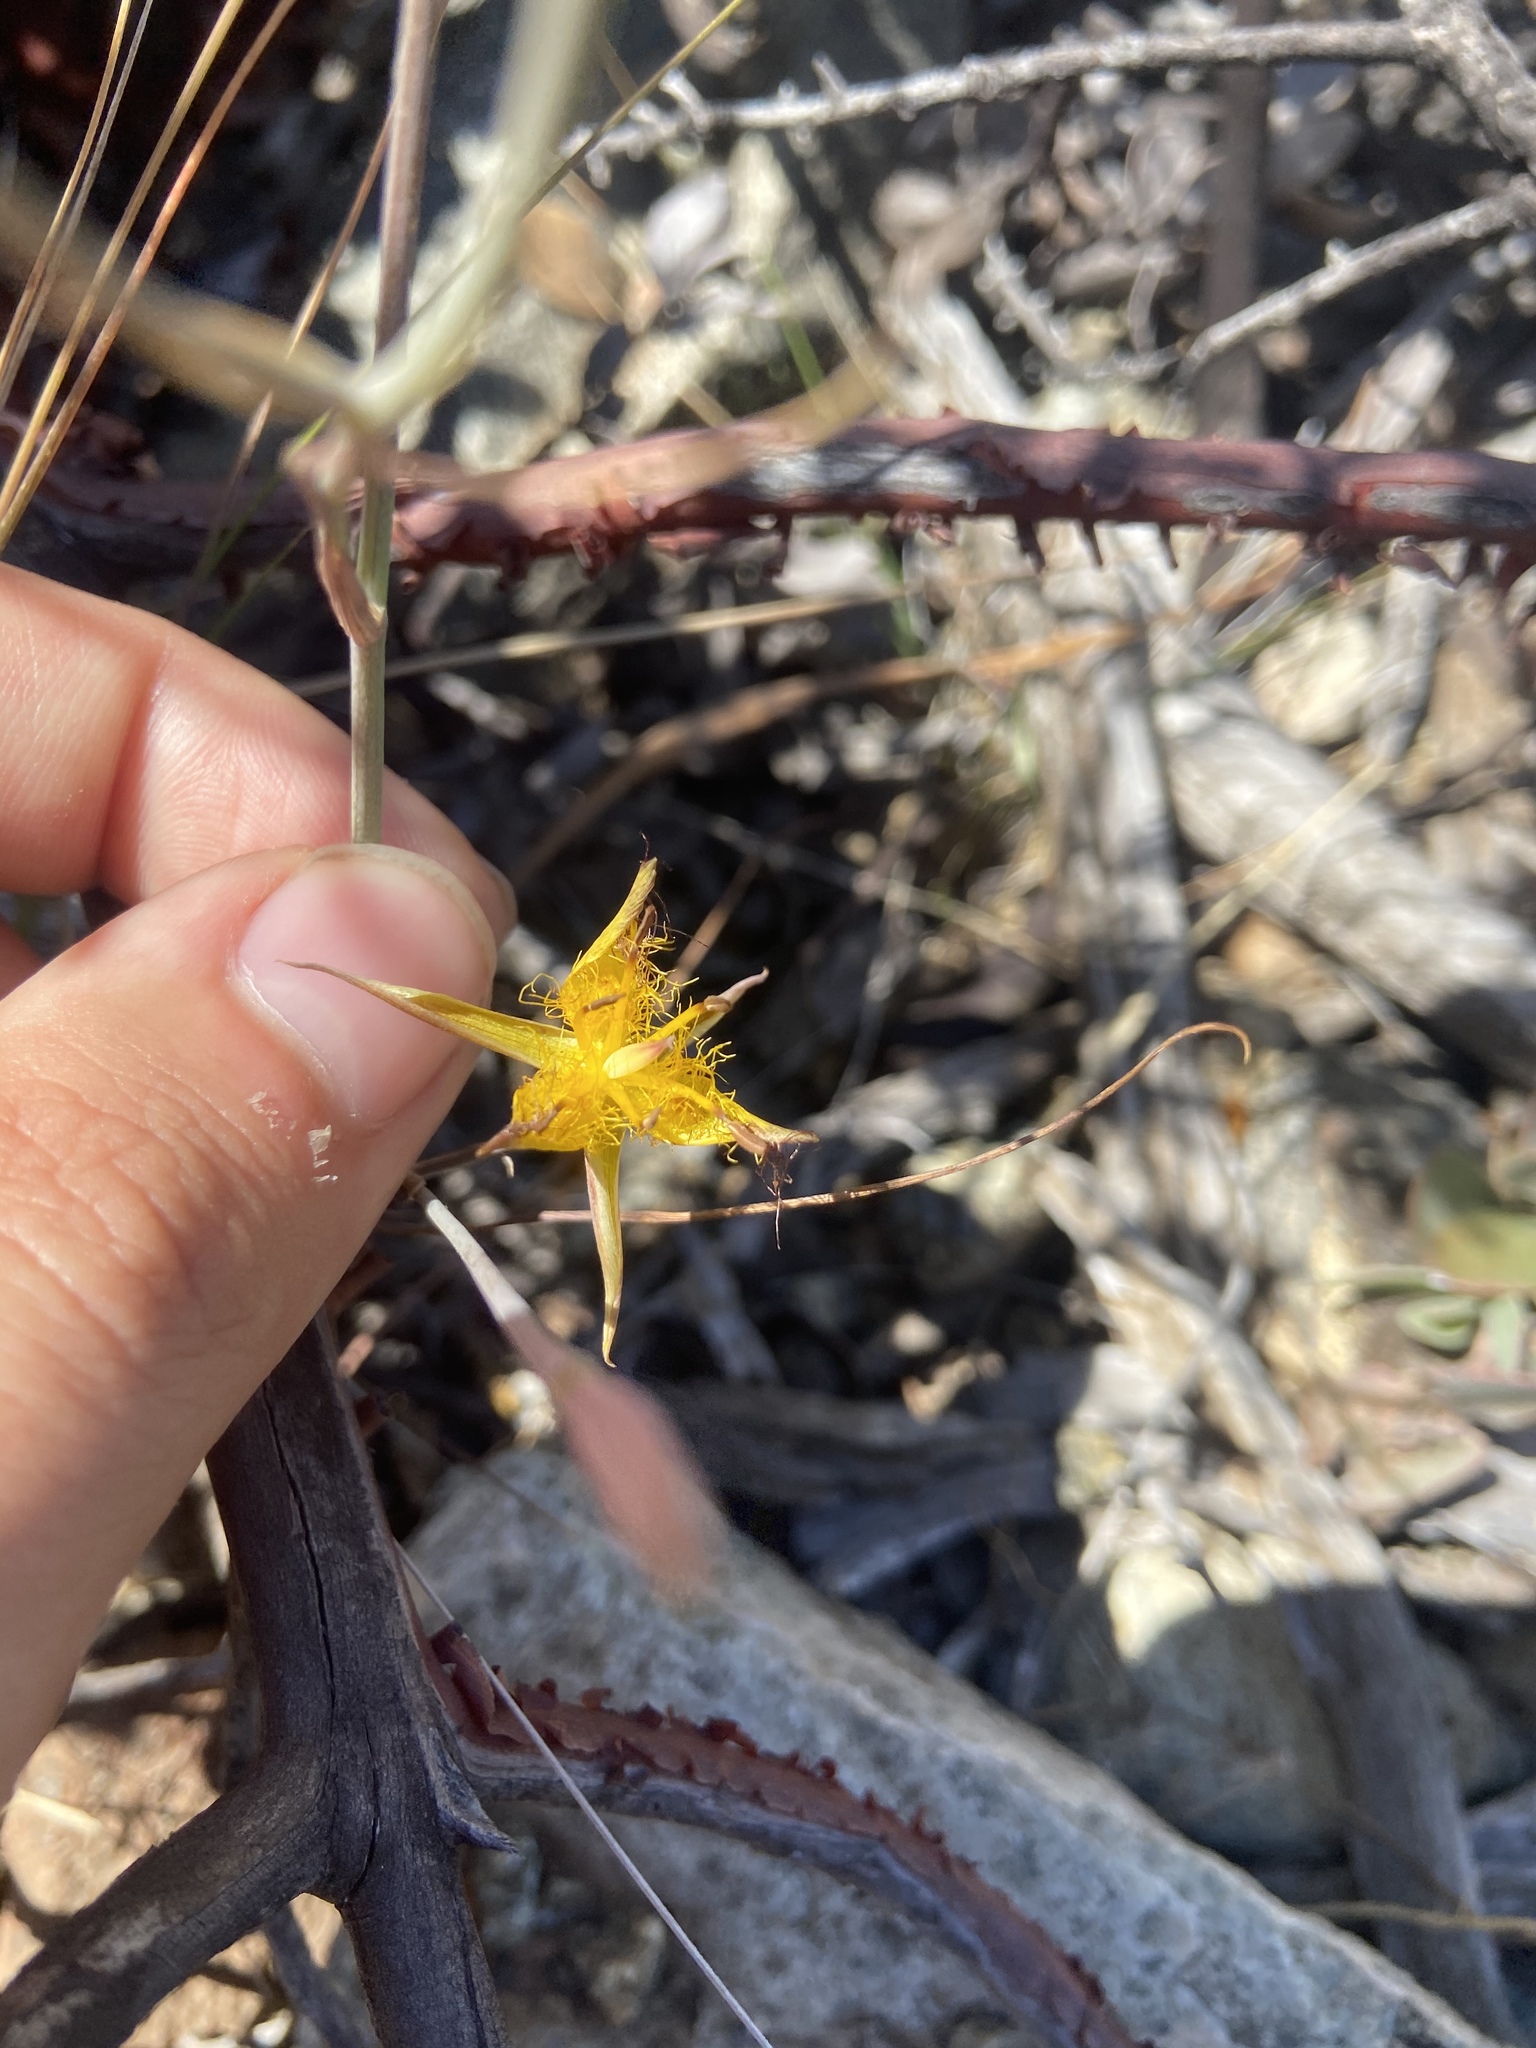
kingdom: Plantae
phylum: Tracheophyta
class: Liliopsida
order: Liliales
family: Liliaceae
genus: Calochortus
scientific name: Calochortus obispoensis
